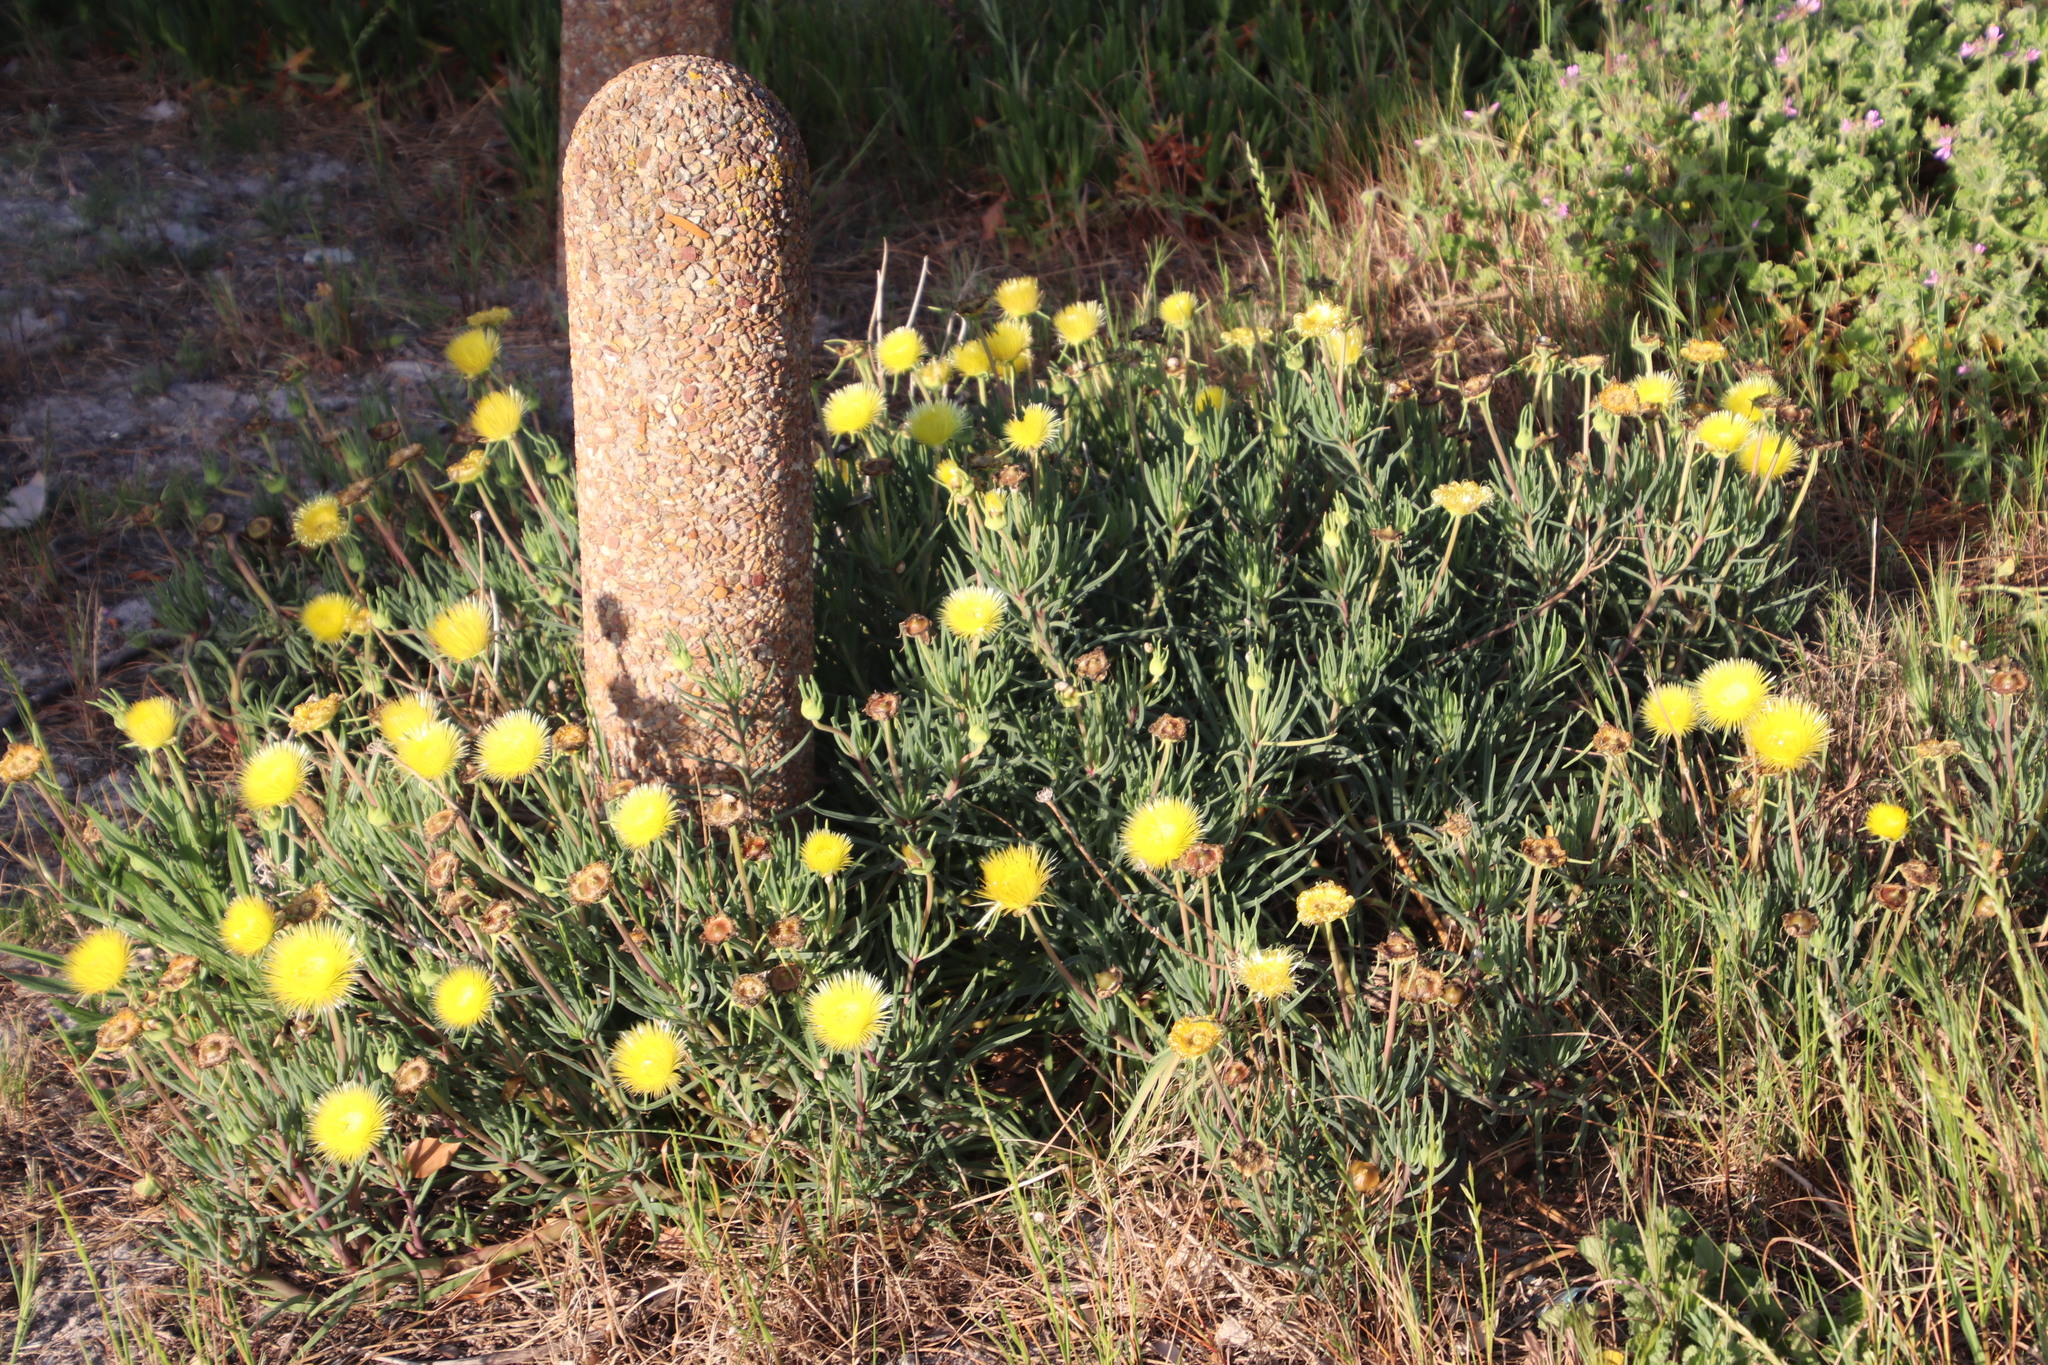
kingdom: Plantae
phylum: Tracheophyta
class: Magnoliopsida
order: Caryophyllales
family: Aizoaceae
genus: Conicosia
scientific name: Conicosia pugioniformis
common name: Narrow-leaved iceplant
